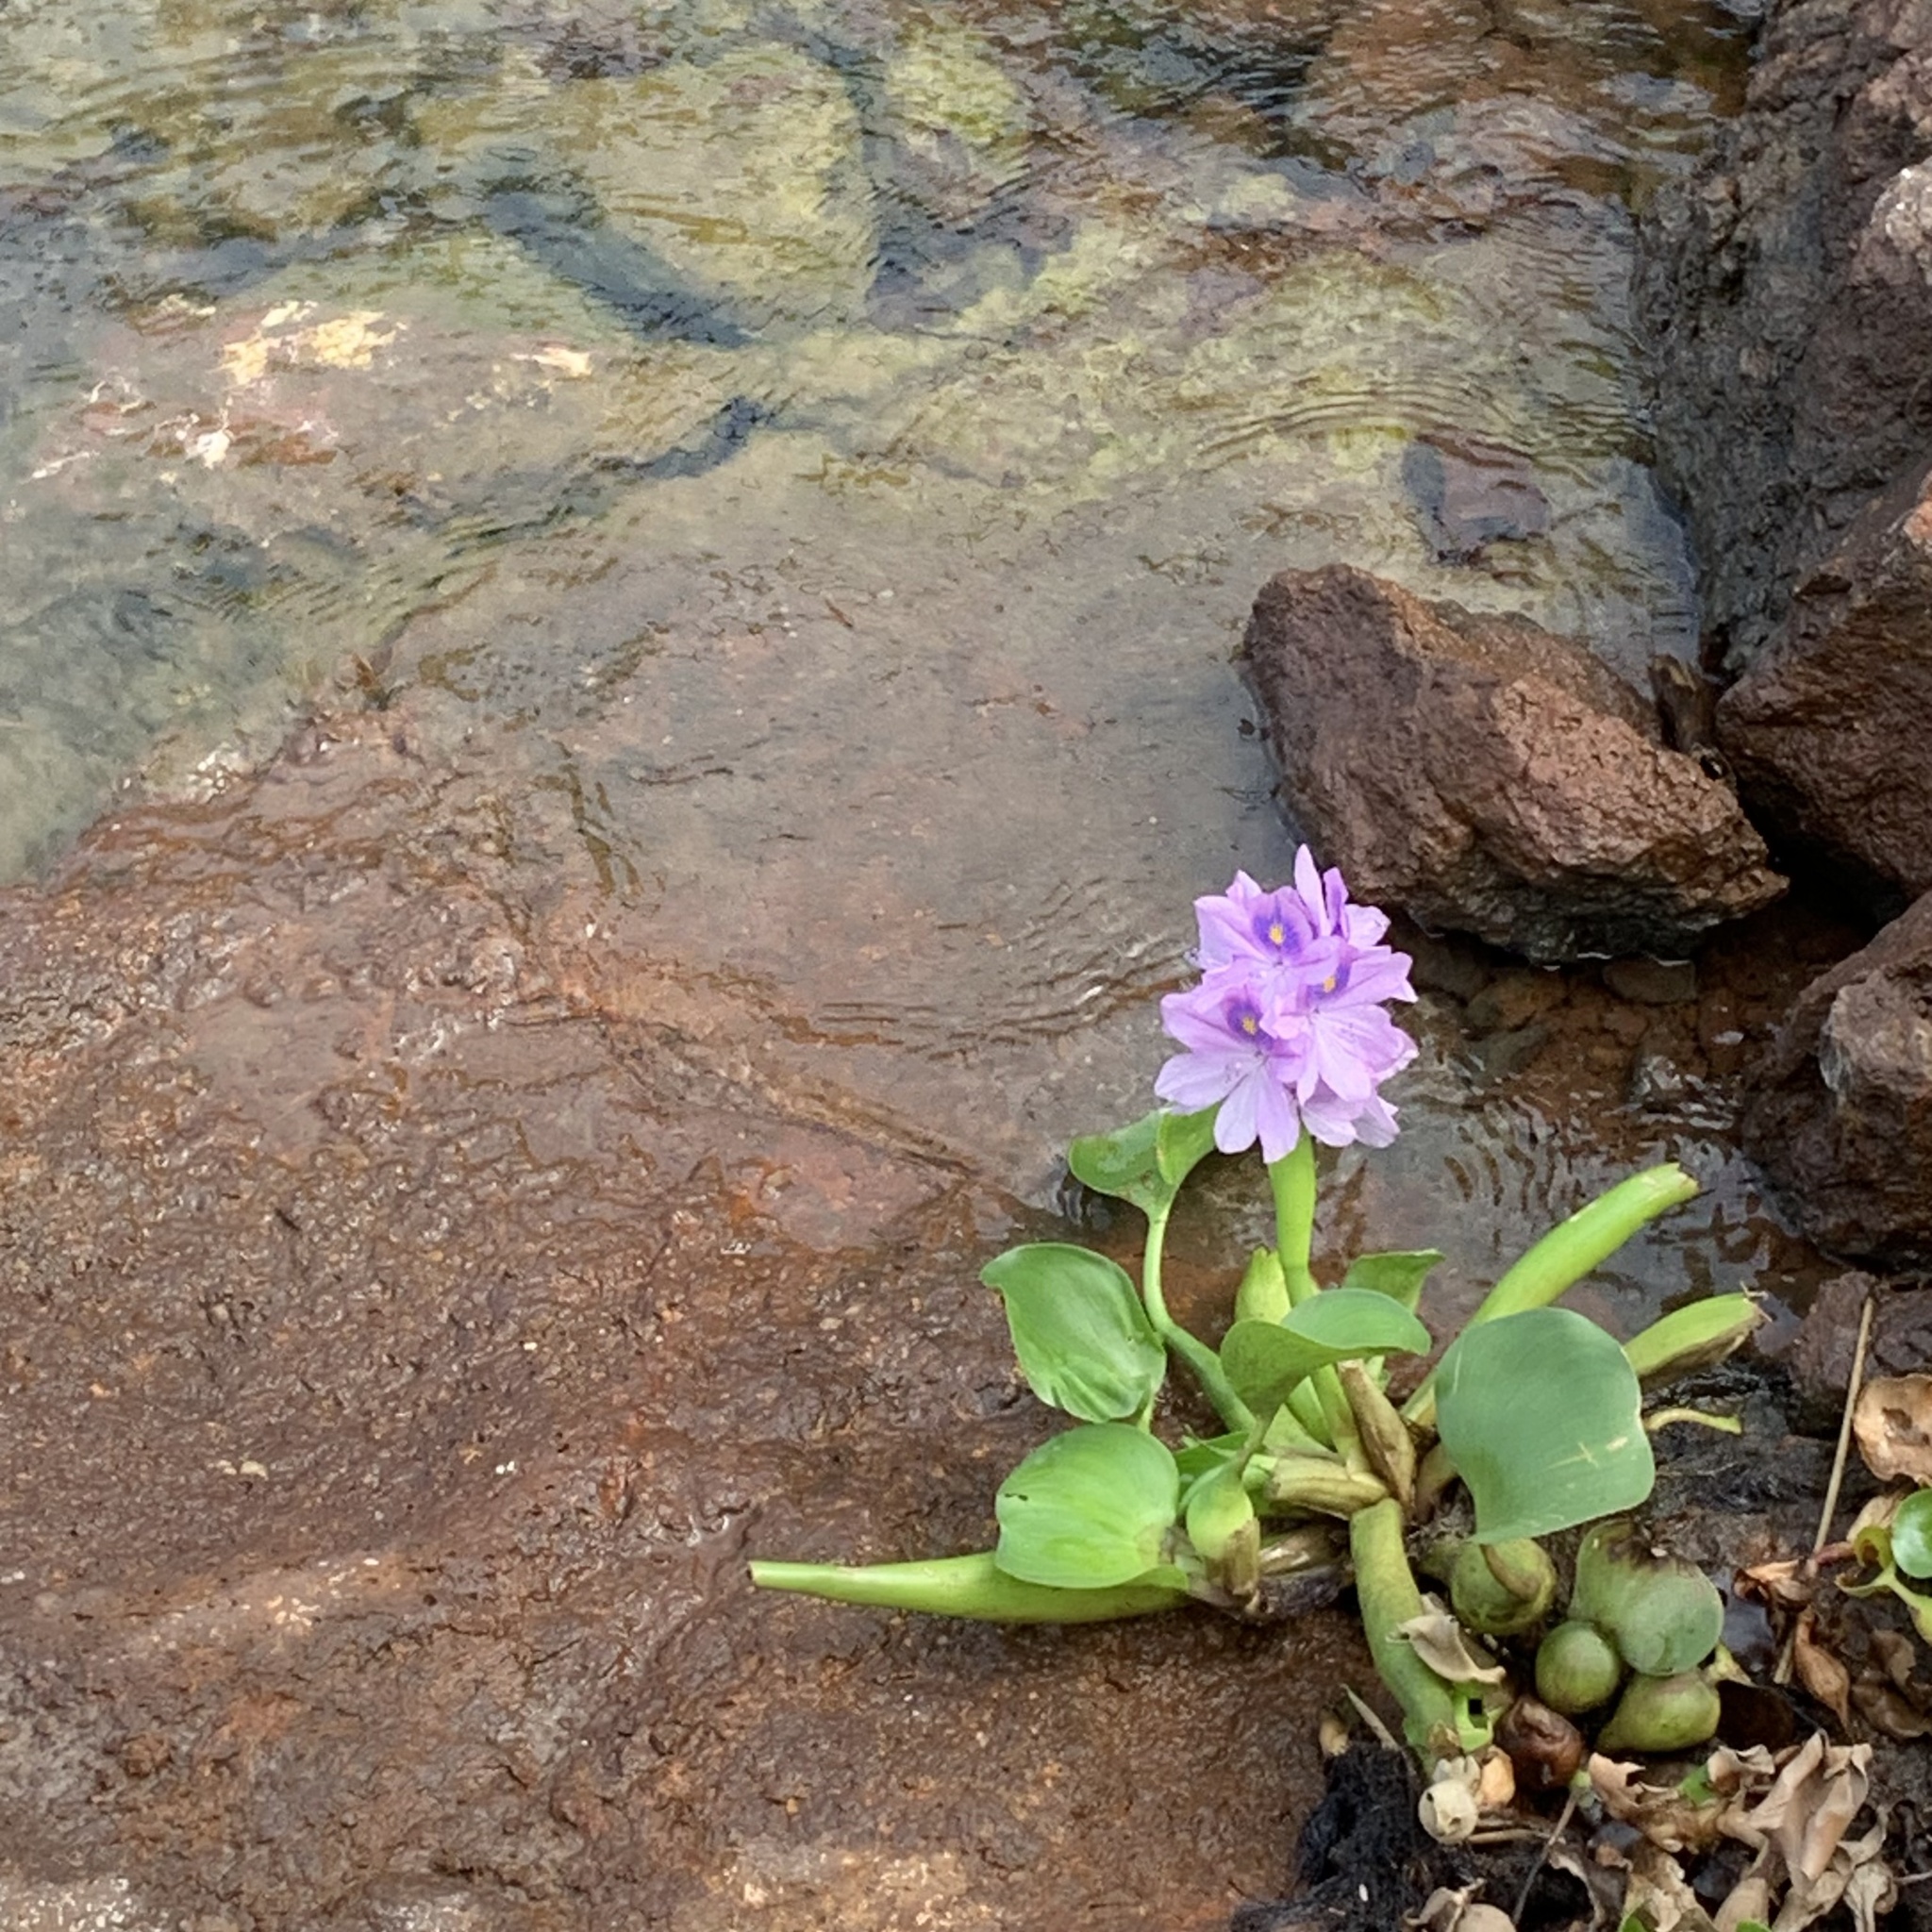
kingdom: Plantae
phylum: Tracheophyta
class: Liliopsida
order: Commelinales
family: Pontederiaceae
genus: Pontederia
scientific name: Pontederia crassipes
